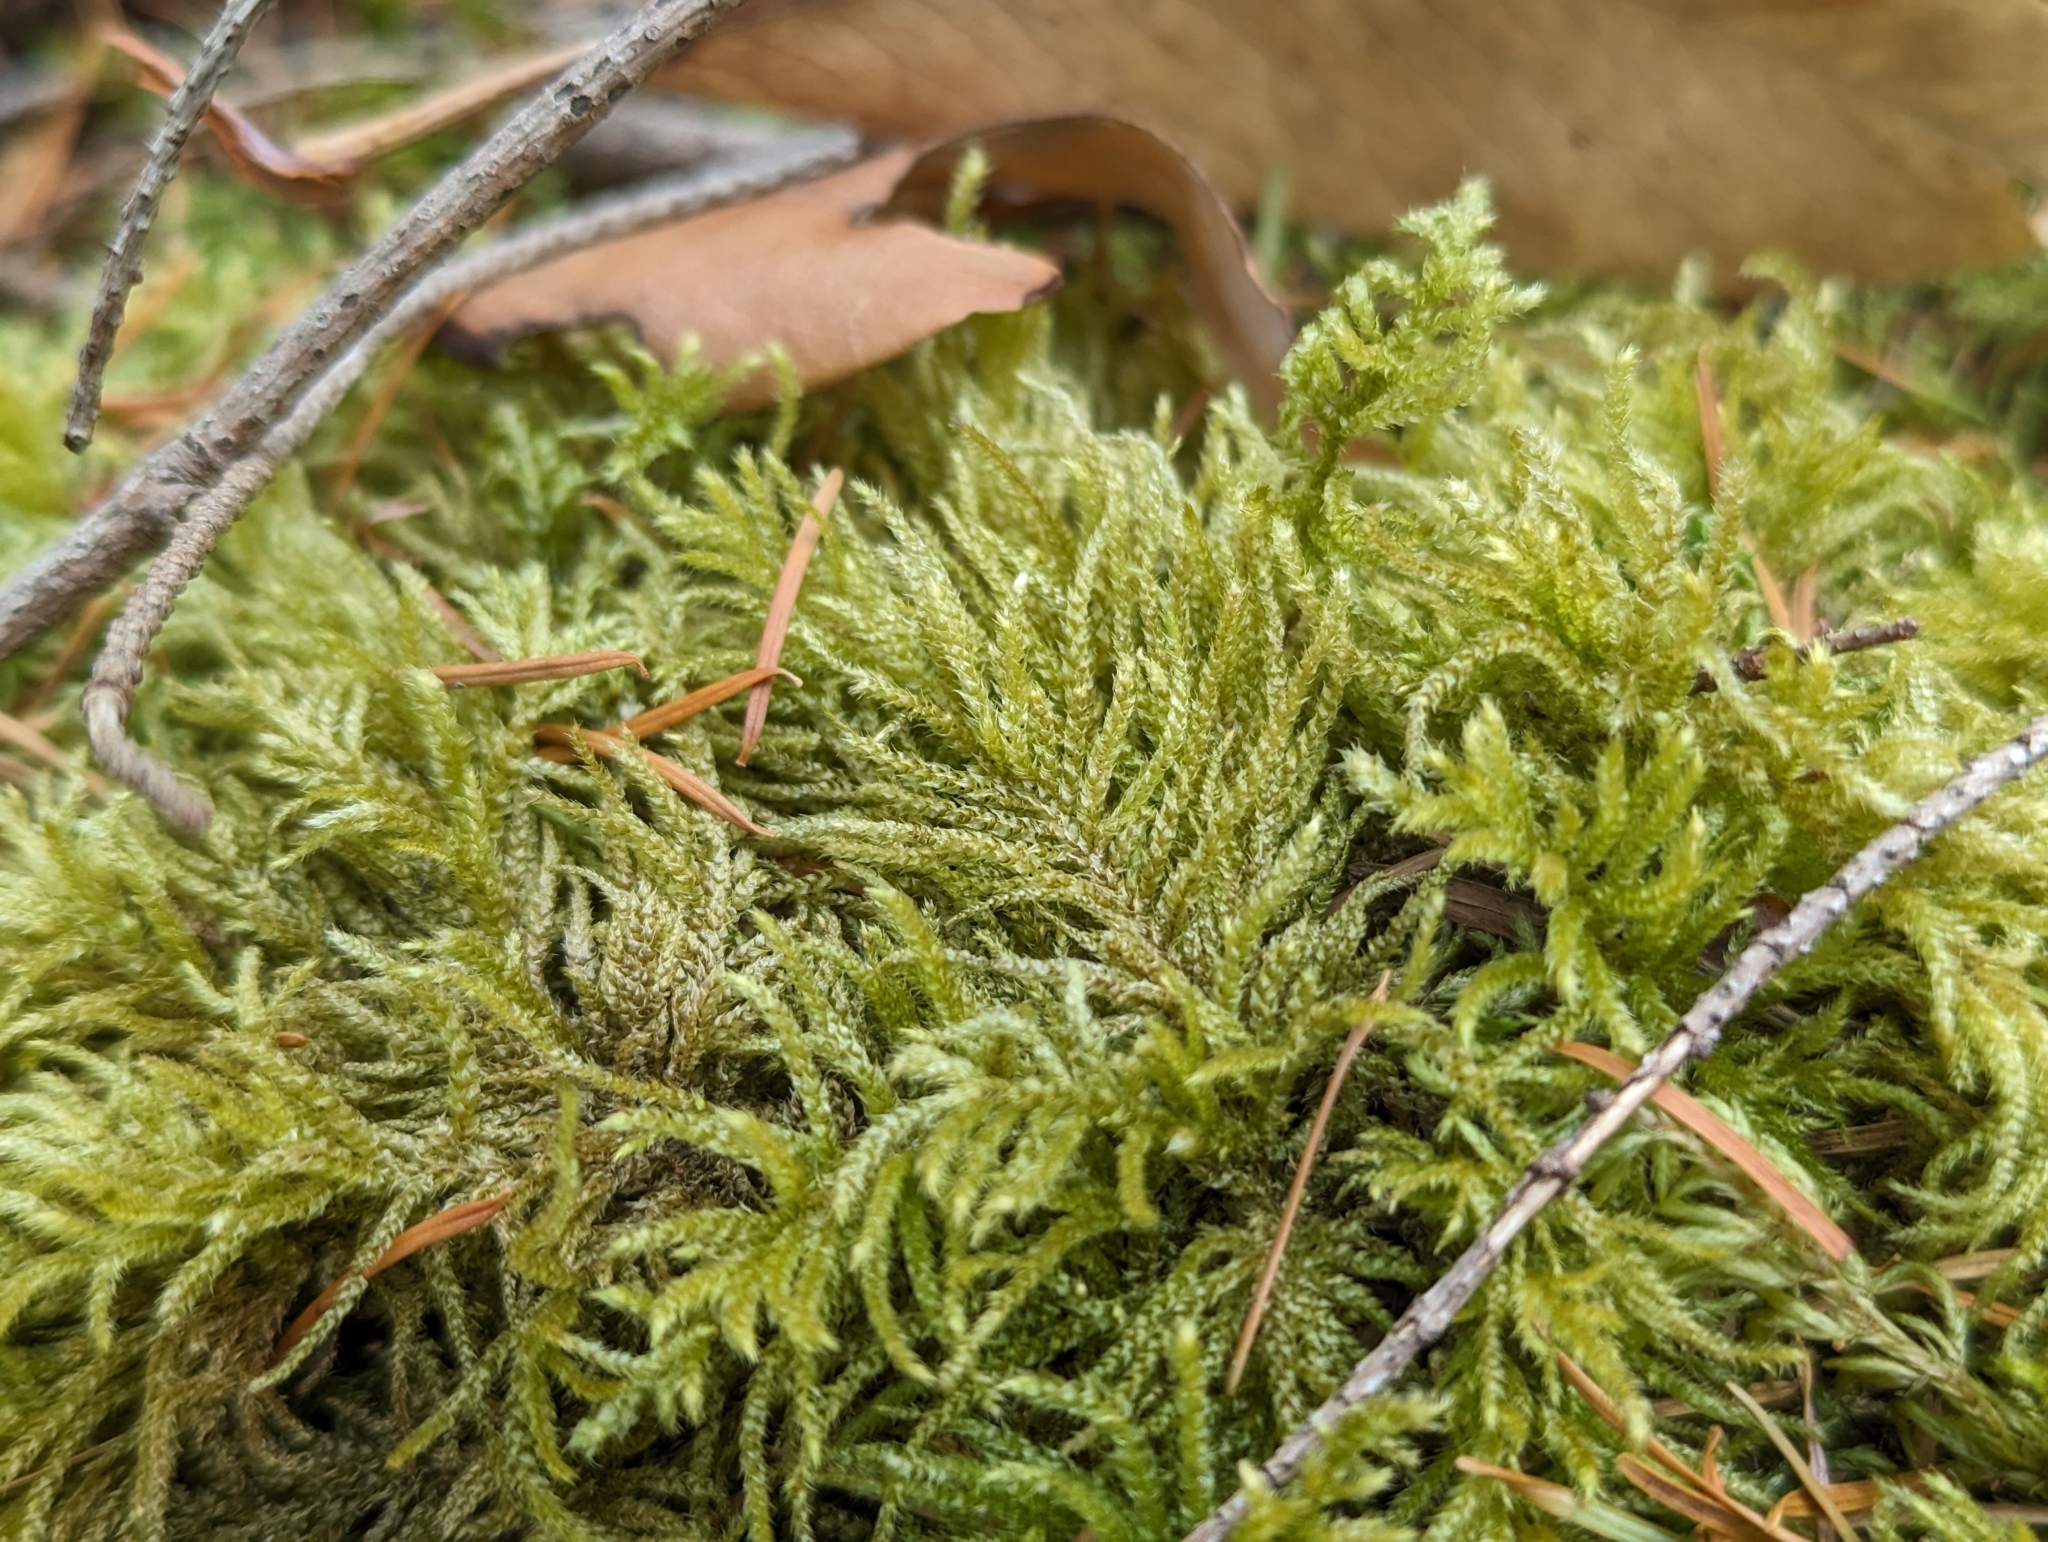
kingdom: Plantae
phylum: Bryophyta
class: Bryopsida
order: Hypnales
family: Brachytheciaceae
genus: Kindbergia
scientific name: Kindbergia oregana
